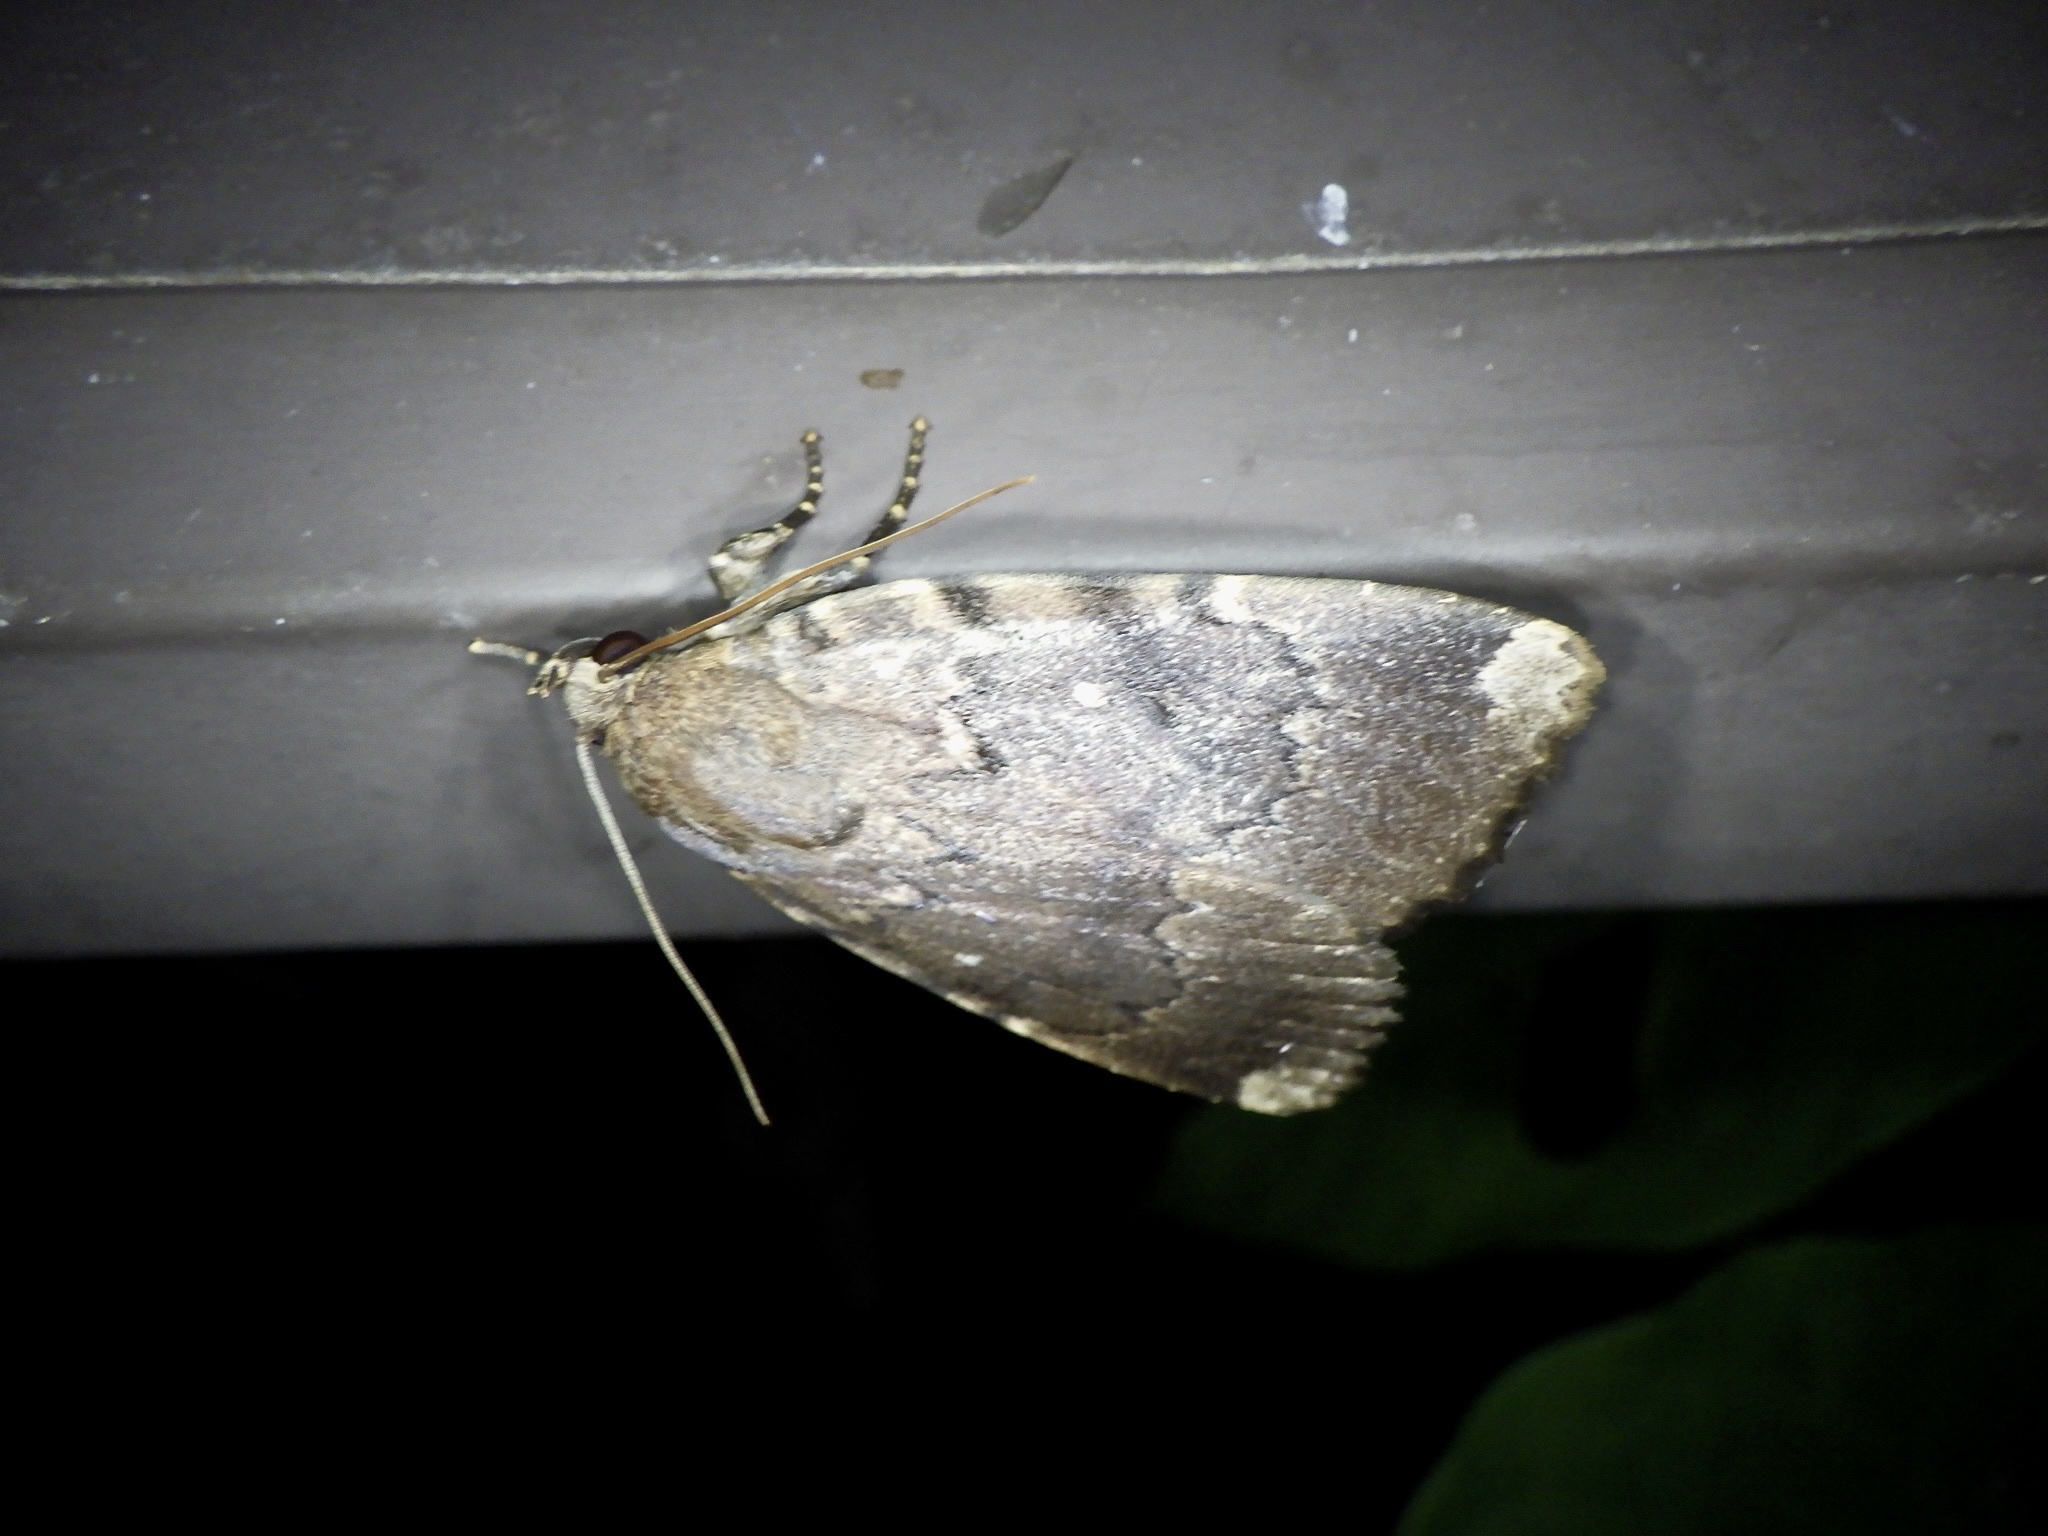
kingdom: Animalia
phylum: Arthropoda
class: Insecta
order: Lepidoptera
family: Noctuidae
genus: Amphipyra
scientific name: Amphipyra schrenckii
